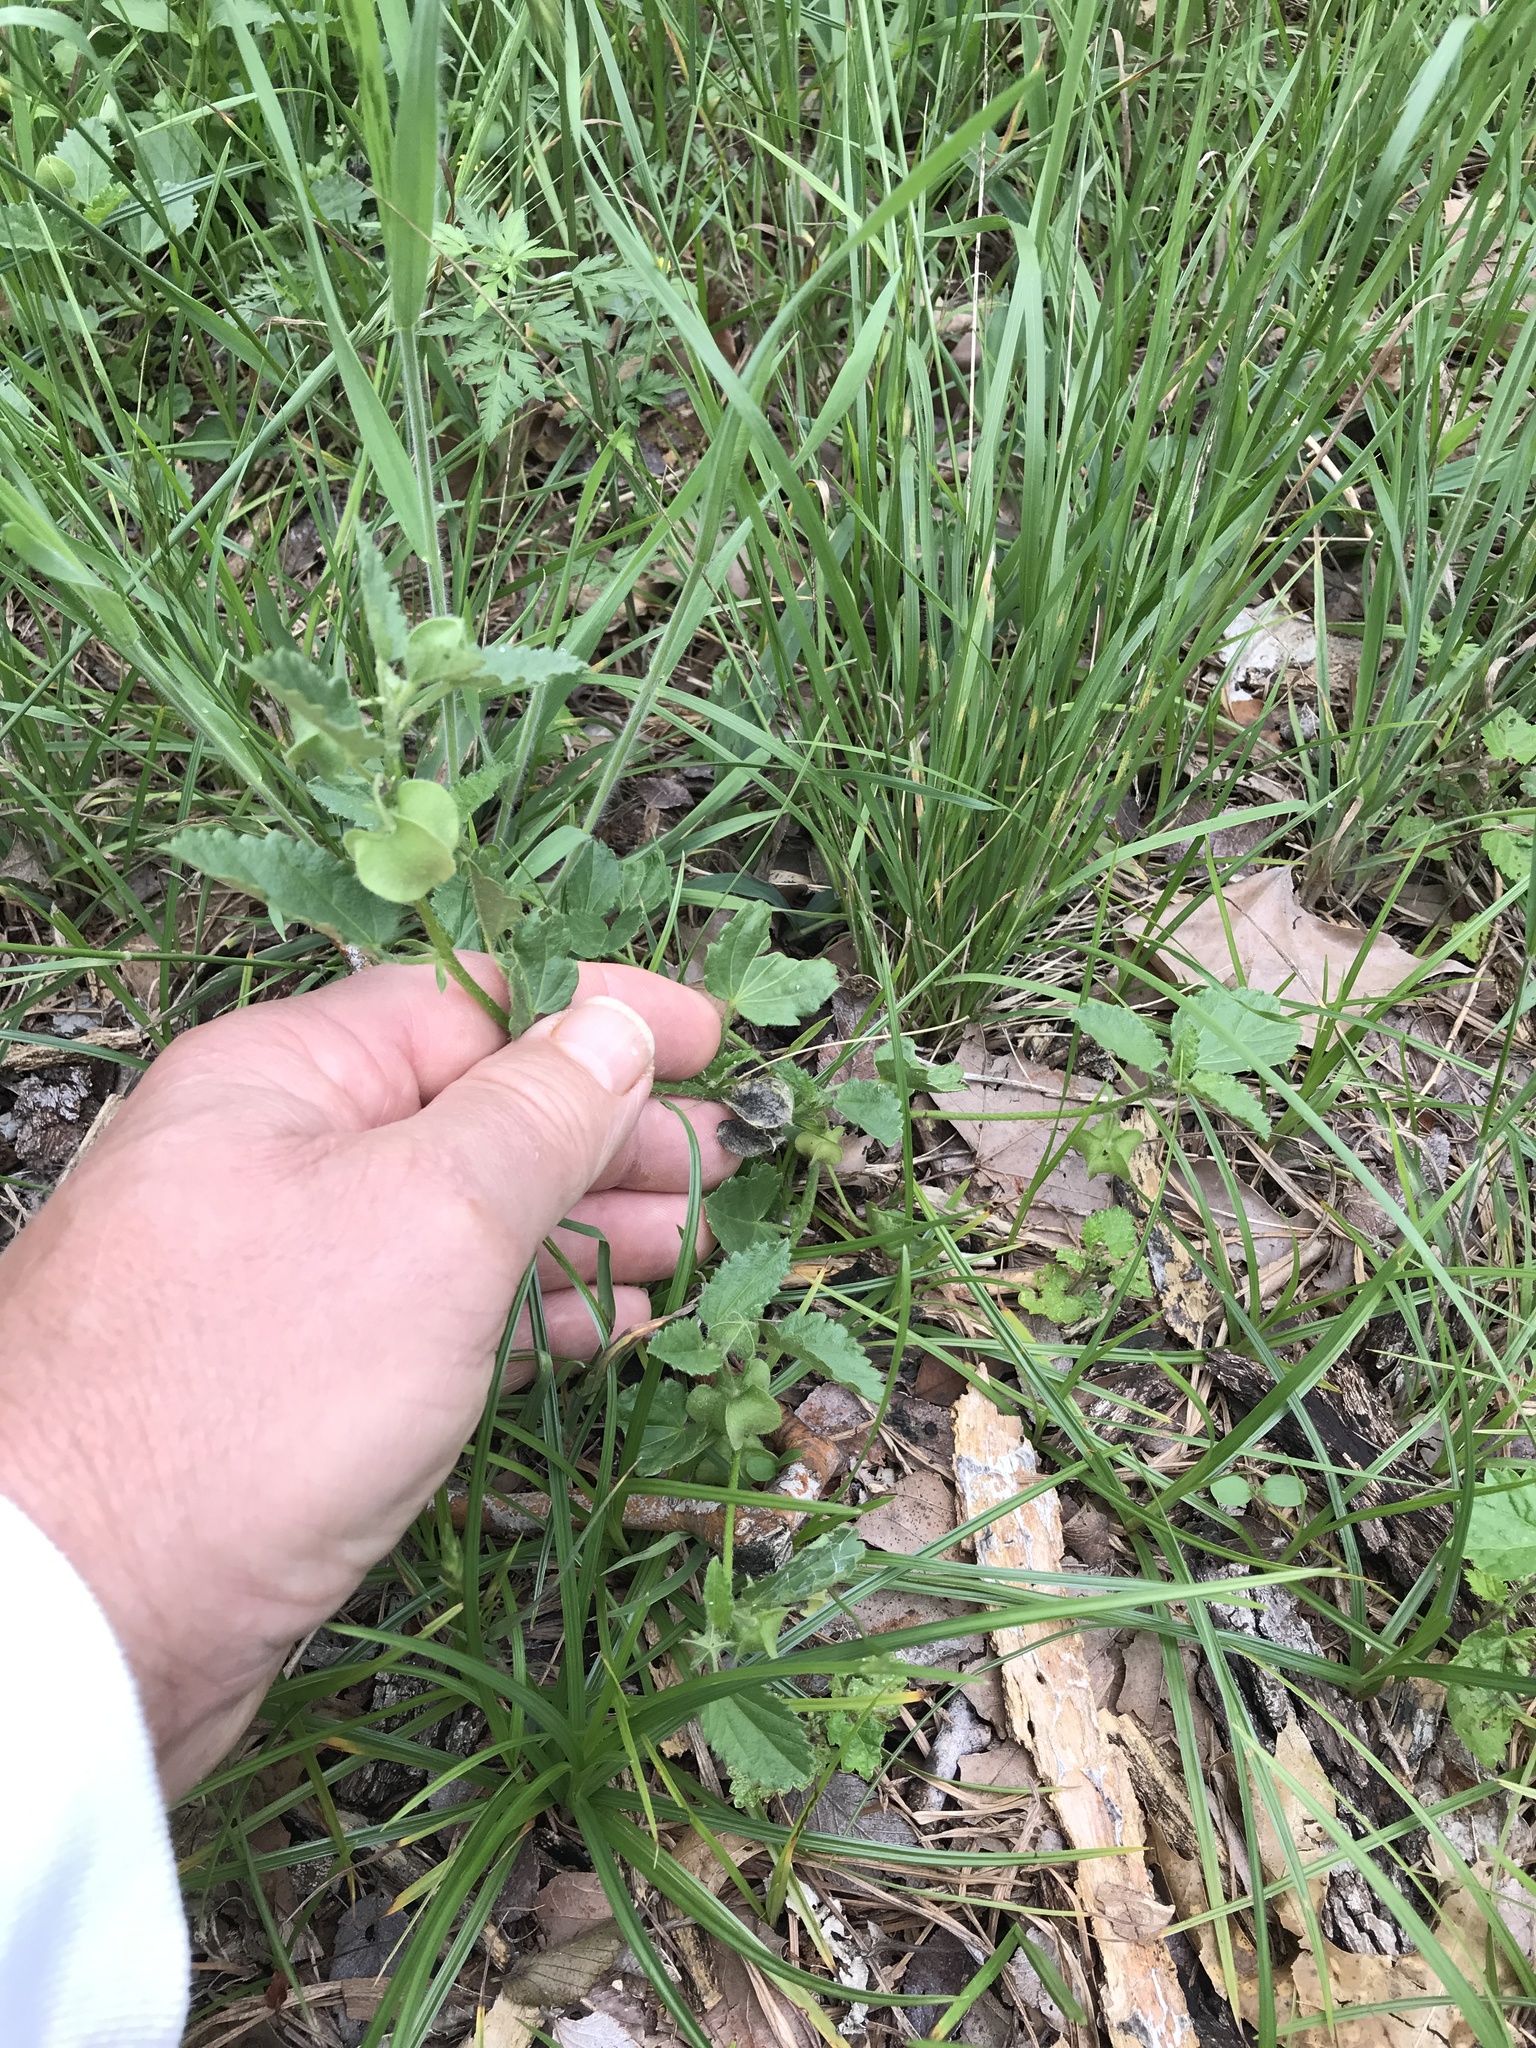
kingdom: Plantae
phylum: Tracheophyta
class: Magnoliopsida
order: Malvales
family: Malvaceae
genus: Rhynchosida
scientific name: Rhynchosida physocalyx
